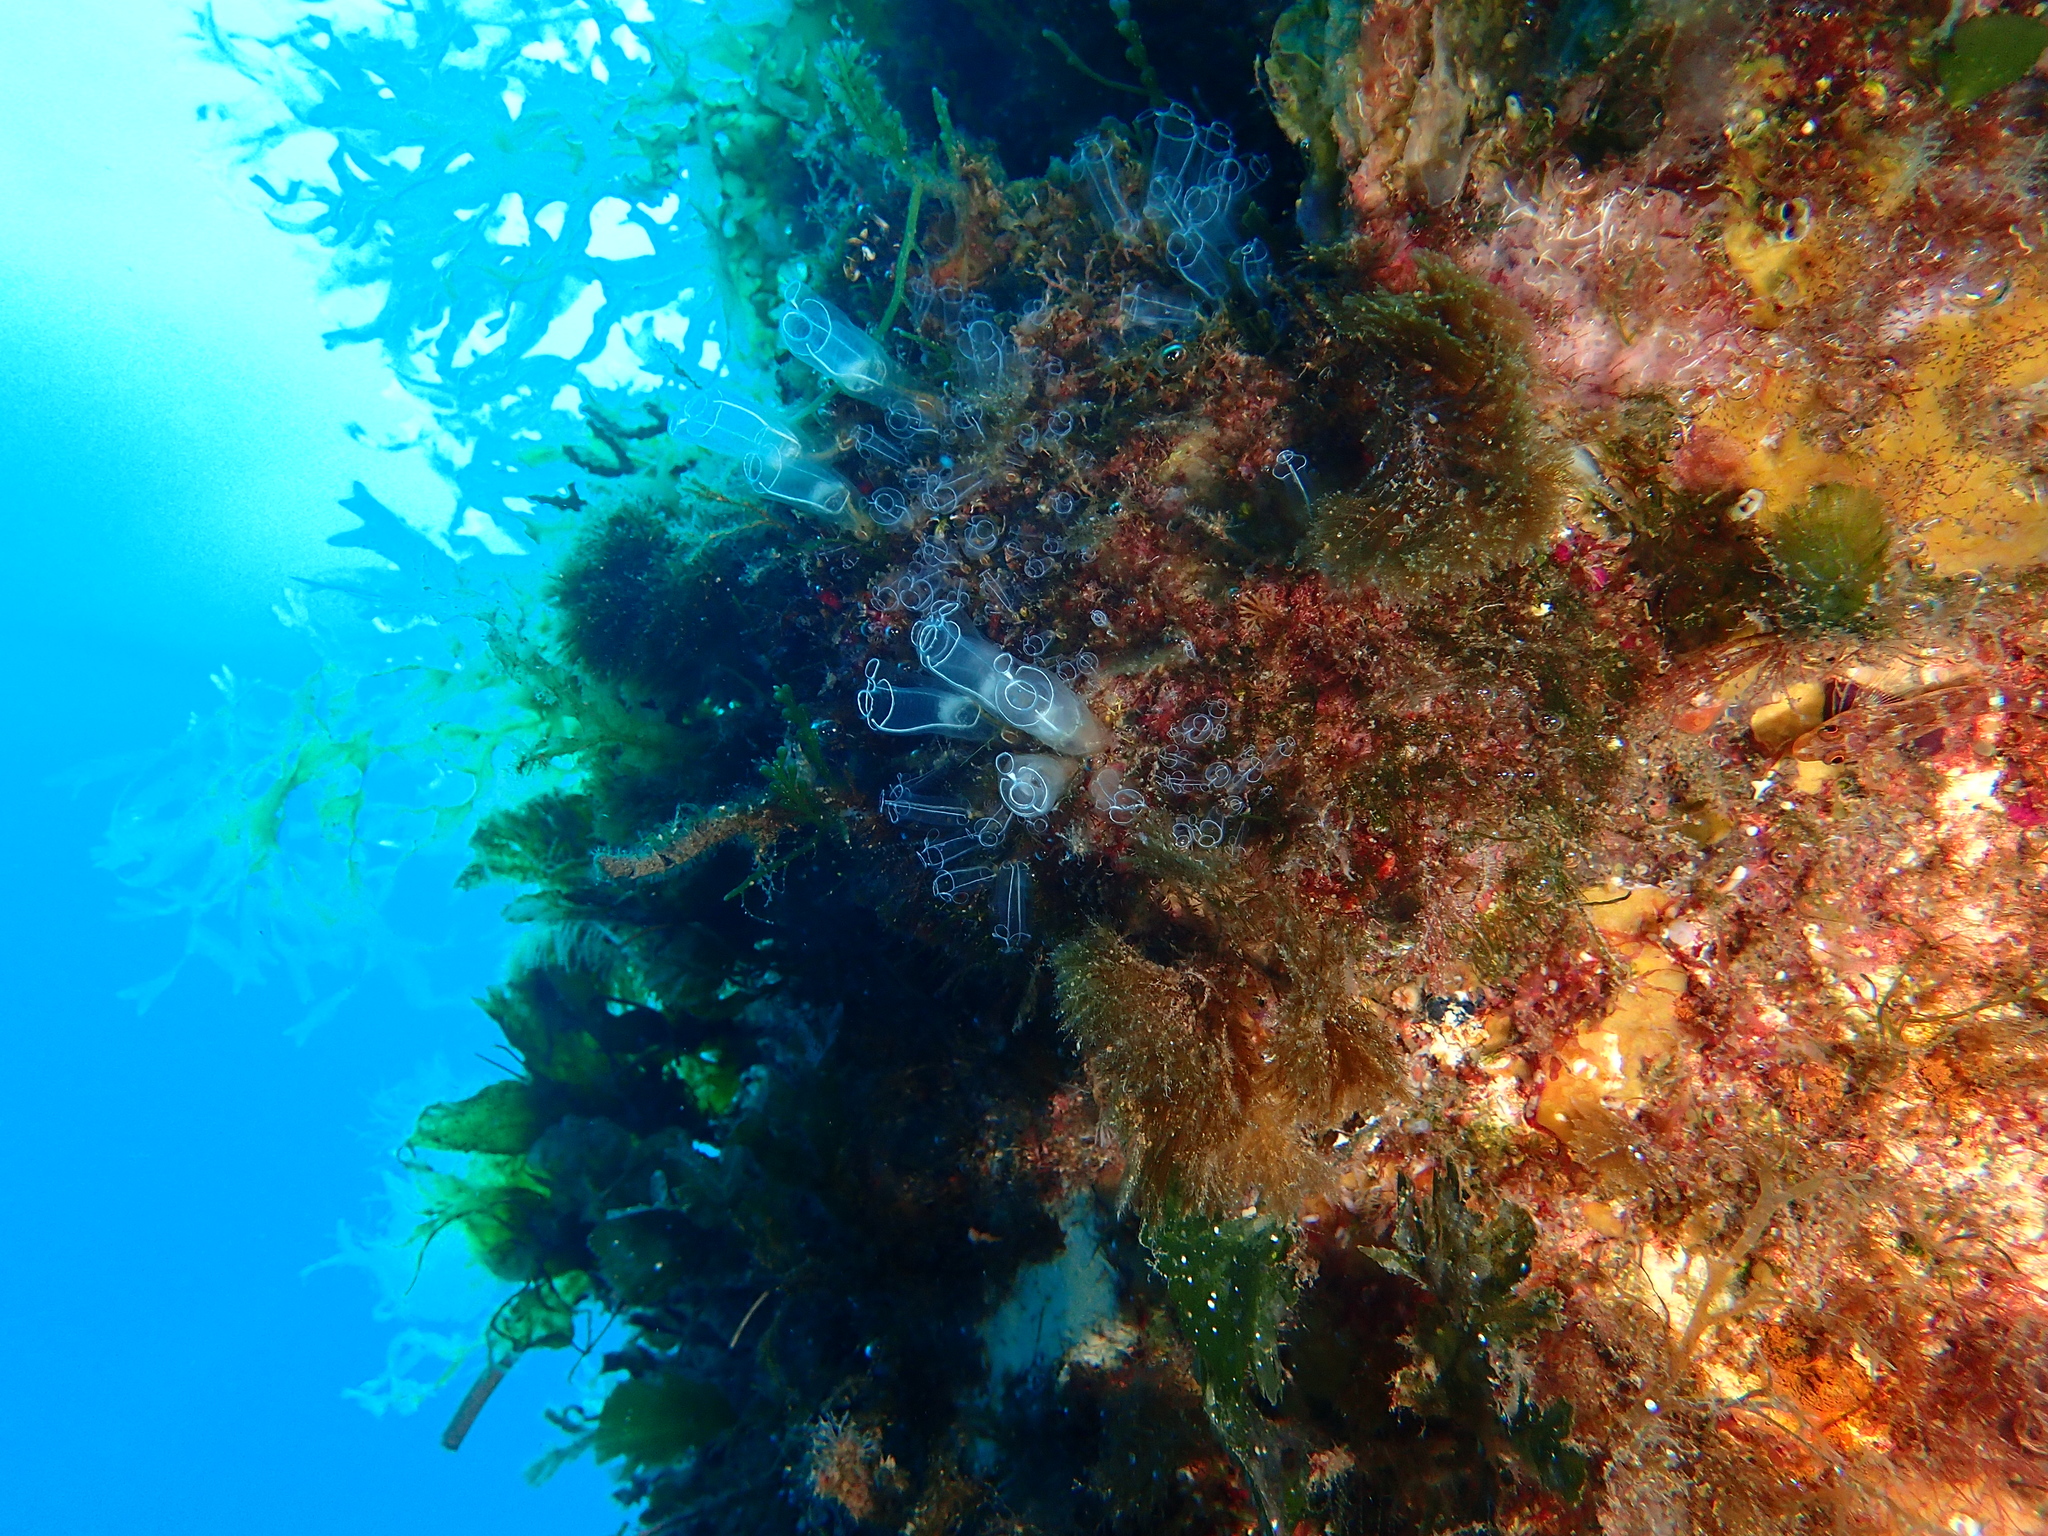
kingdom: Animalia
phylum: Chordata
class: Ascidiacea
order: Aplousobranchia
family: Clavelinidae
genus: Clavelina
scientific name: Clavelina lepadiformis
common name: Light bulb tunicate
